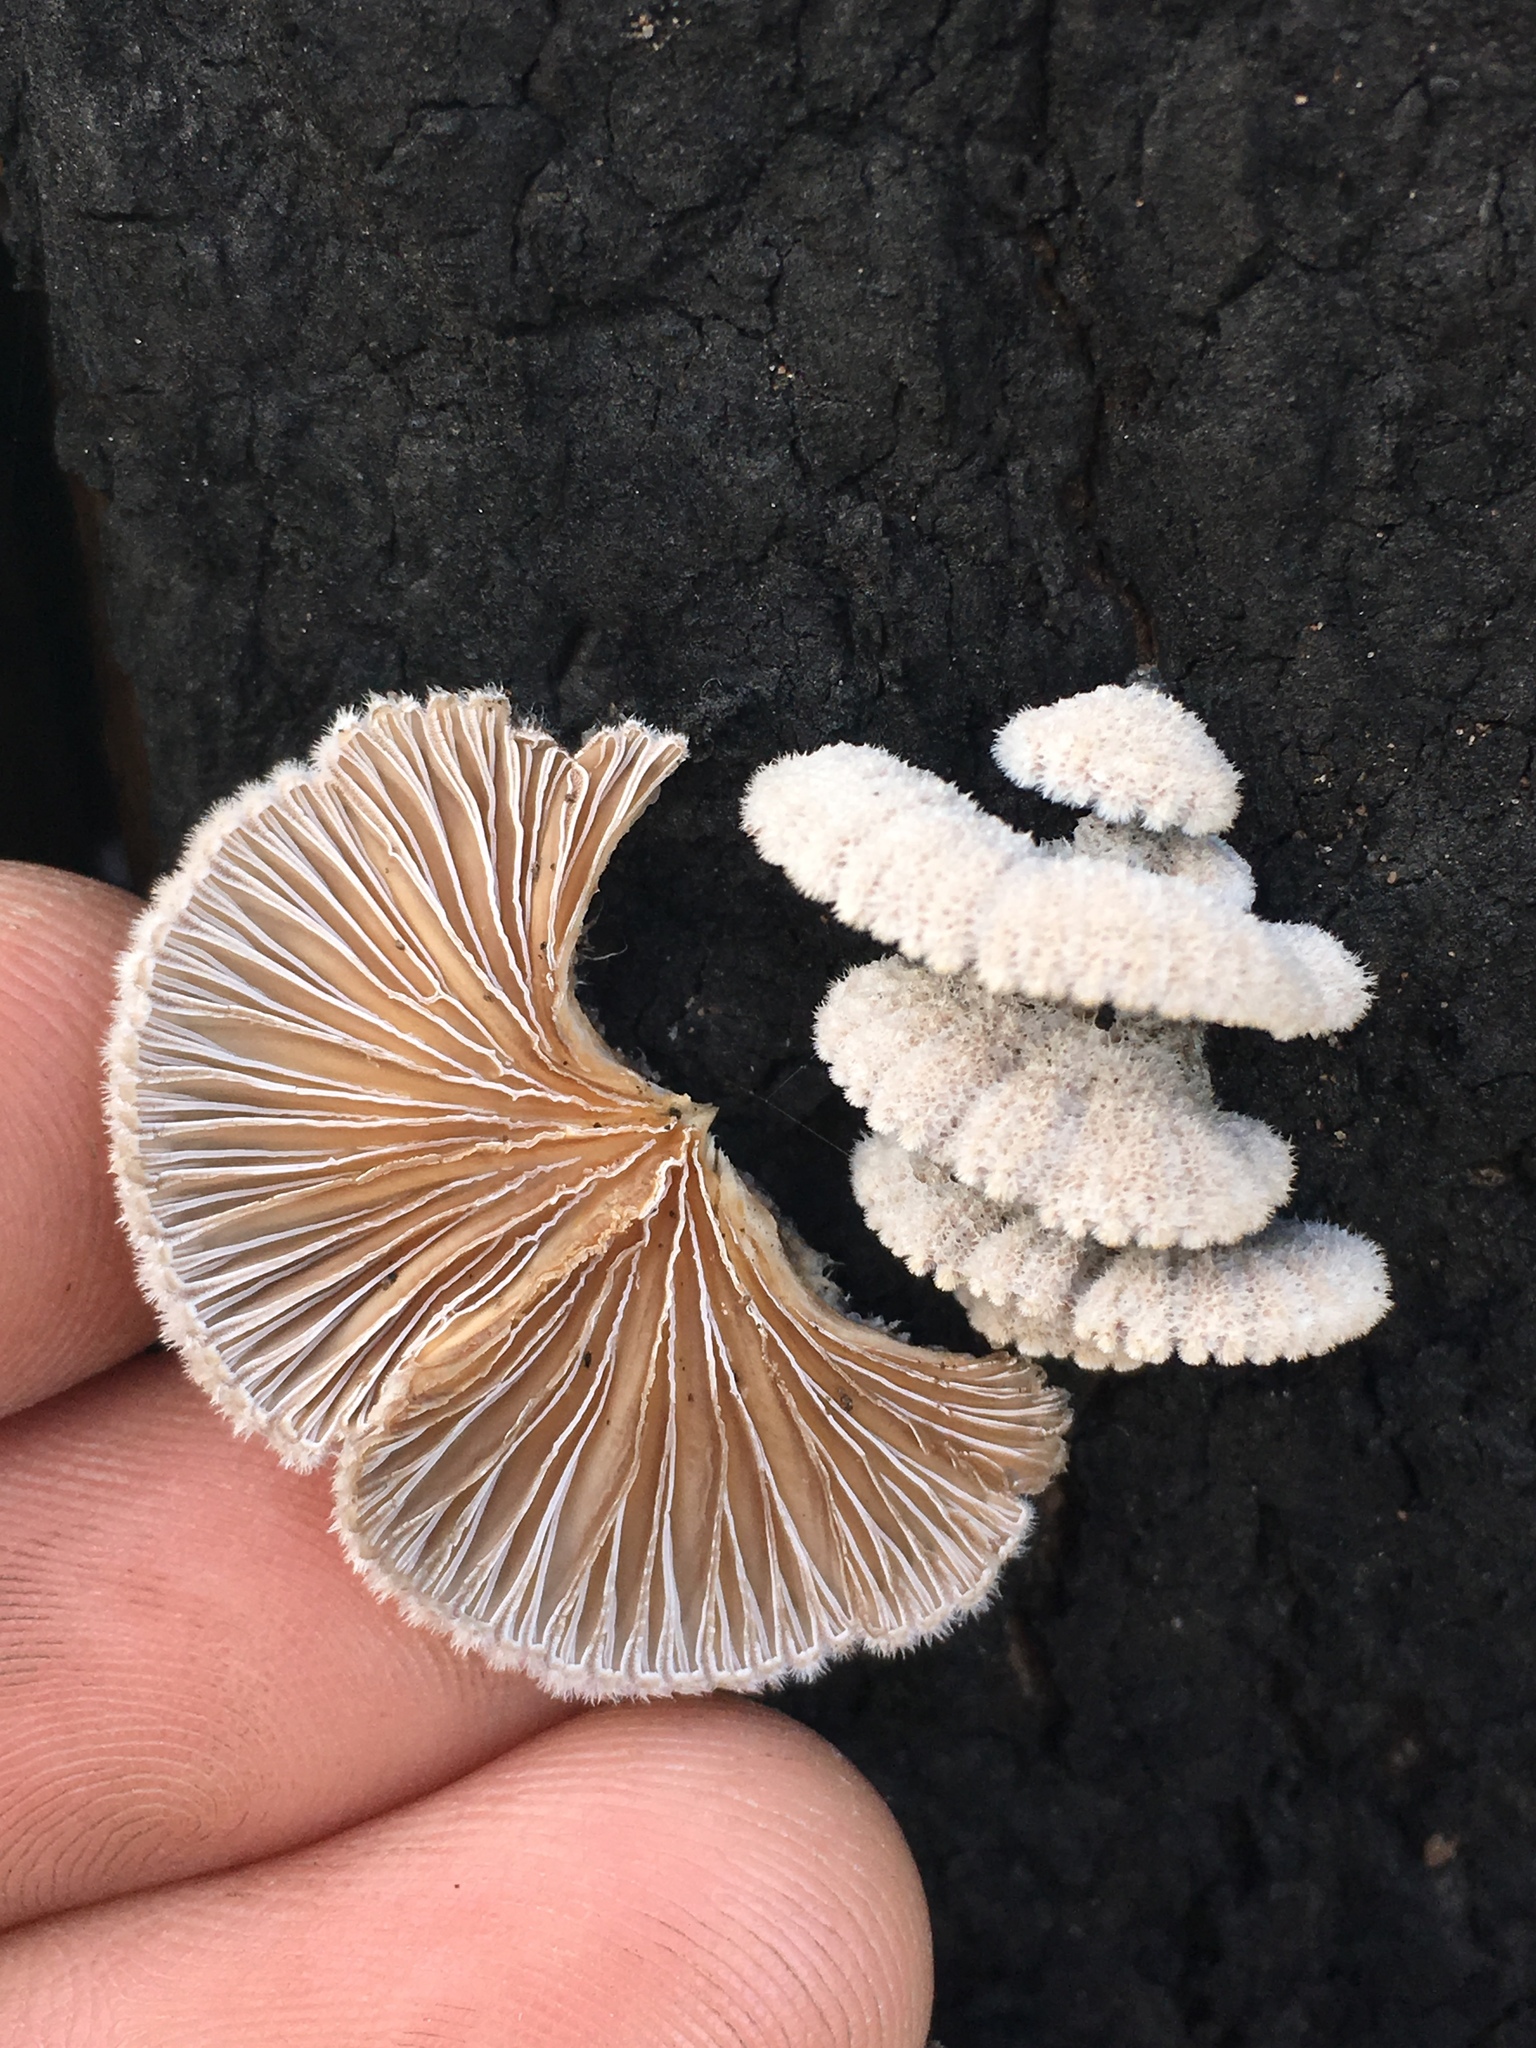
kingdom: Fungi
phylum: Basidiomycota
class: Agaricomycetes
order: Agaricales
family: Schizophyllaceae
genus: Schizophyllum
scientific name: Schizophyllum commune
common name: Common porecrust
